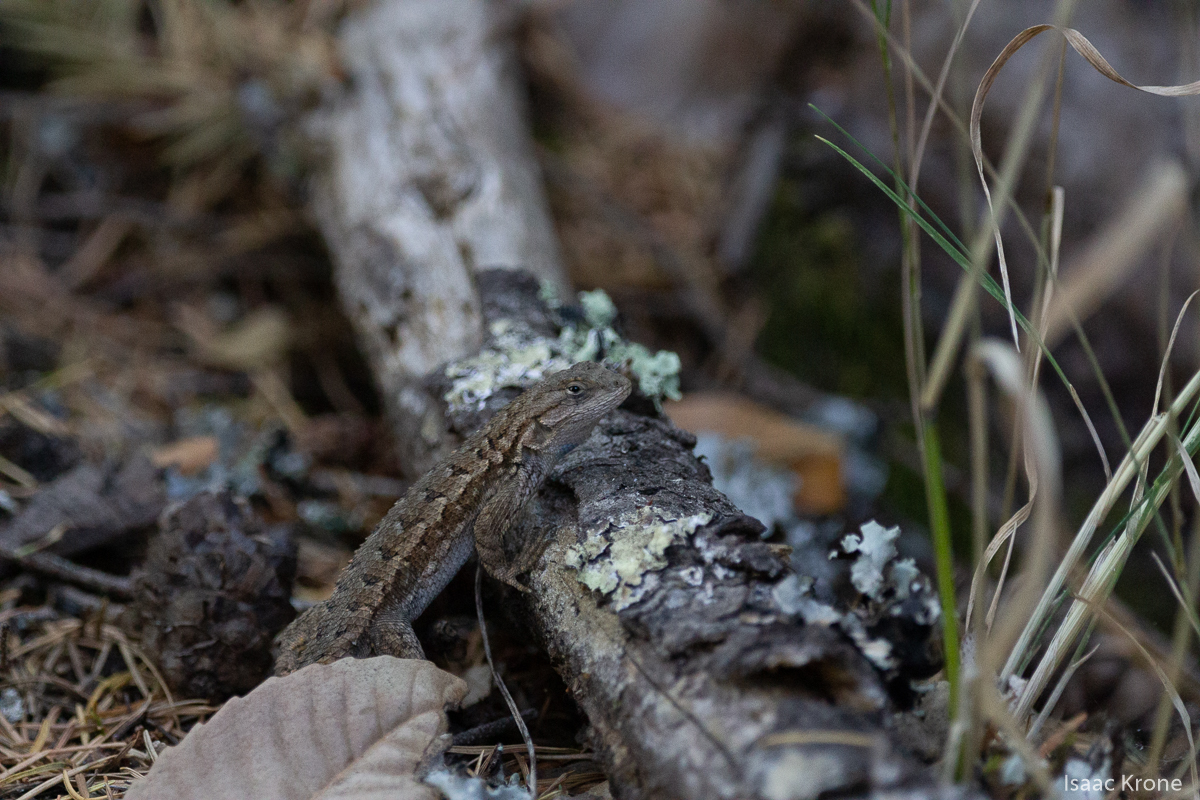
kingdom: Animalia
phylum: Chordata
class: Squamata
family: Phrynosomatidae
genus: Sceloporus
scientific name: Sceloporus occidentalis
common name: Western fence lizard
